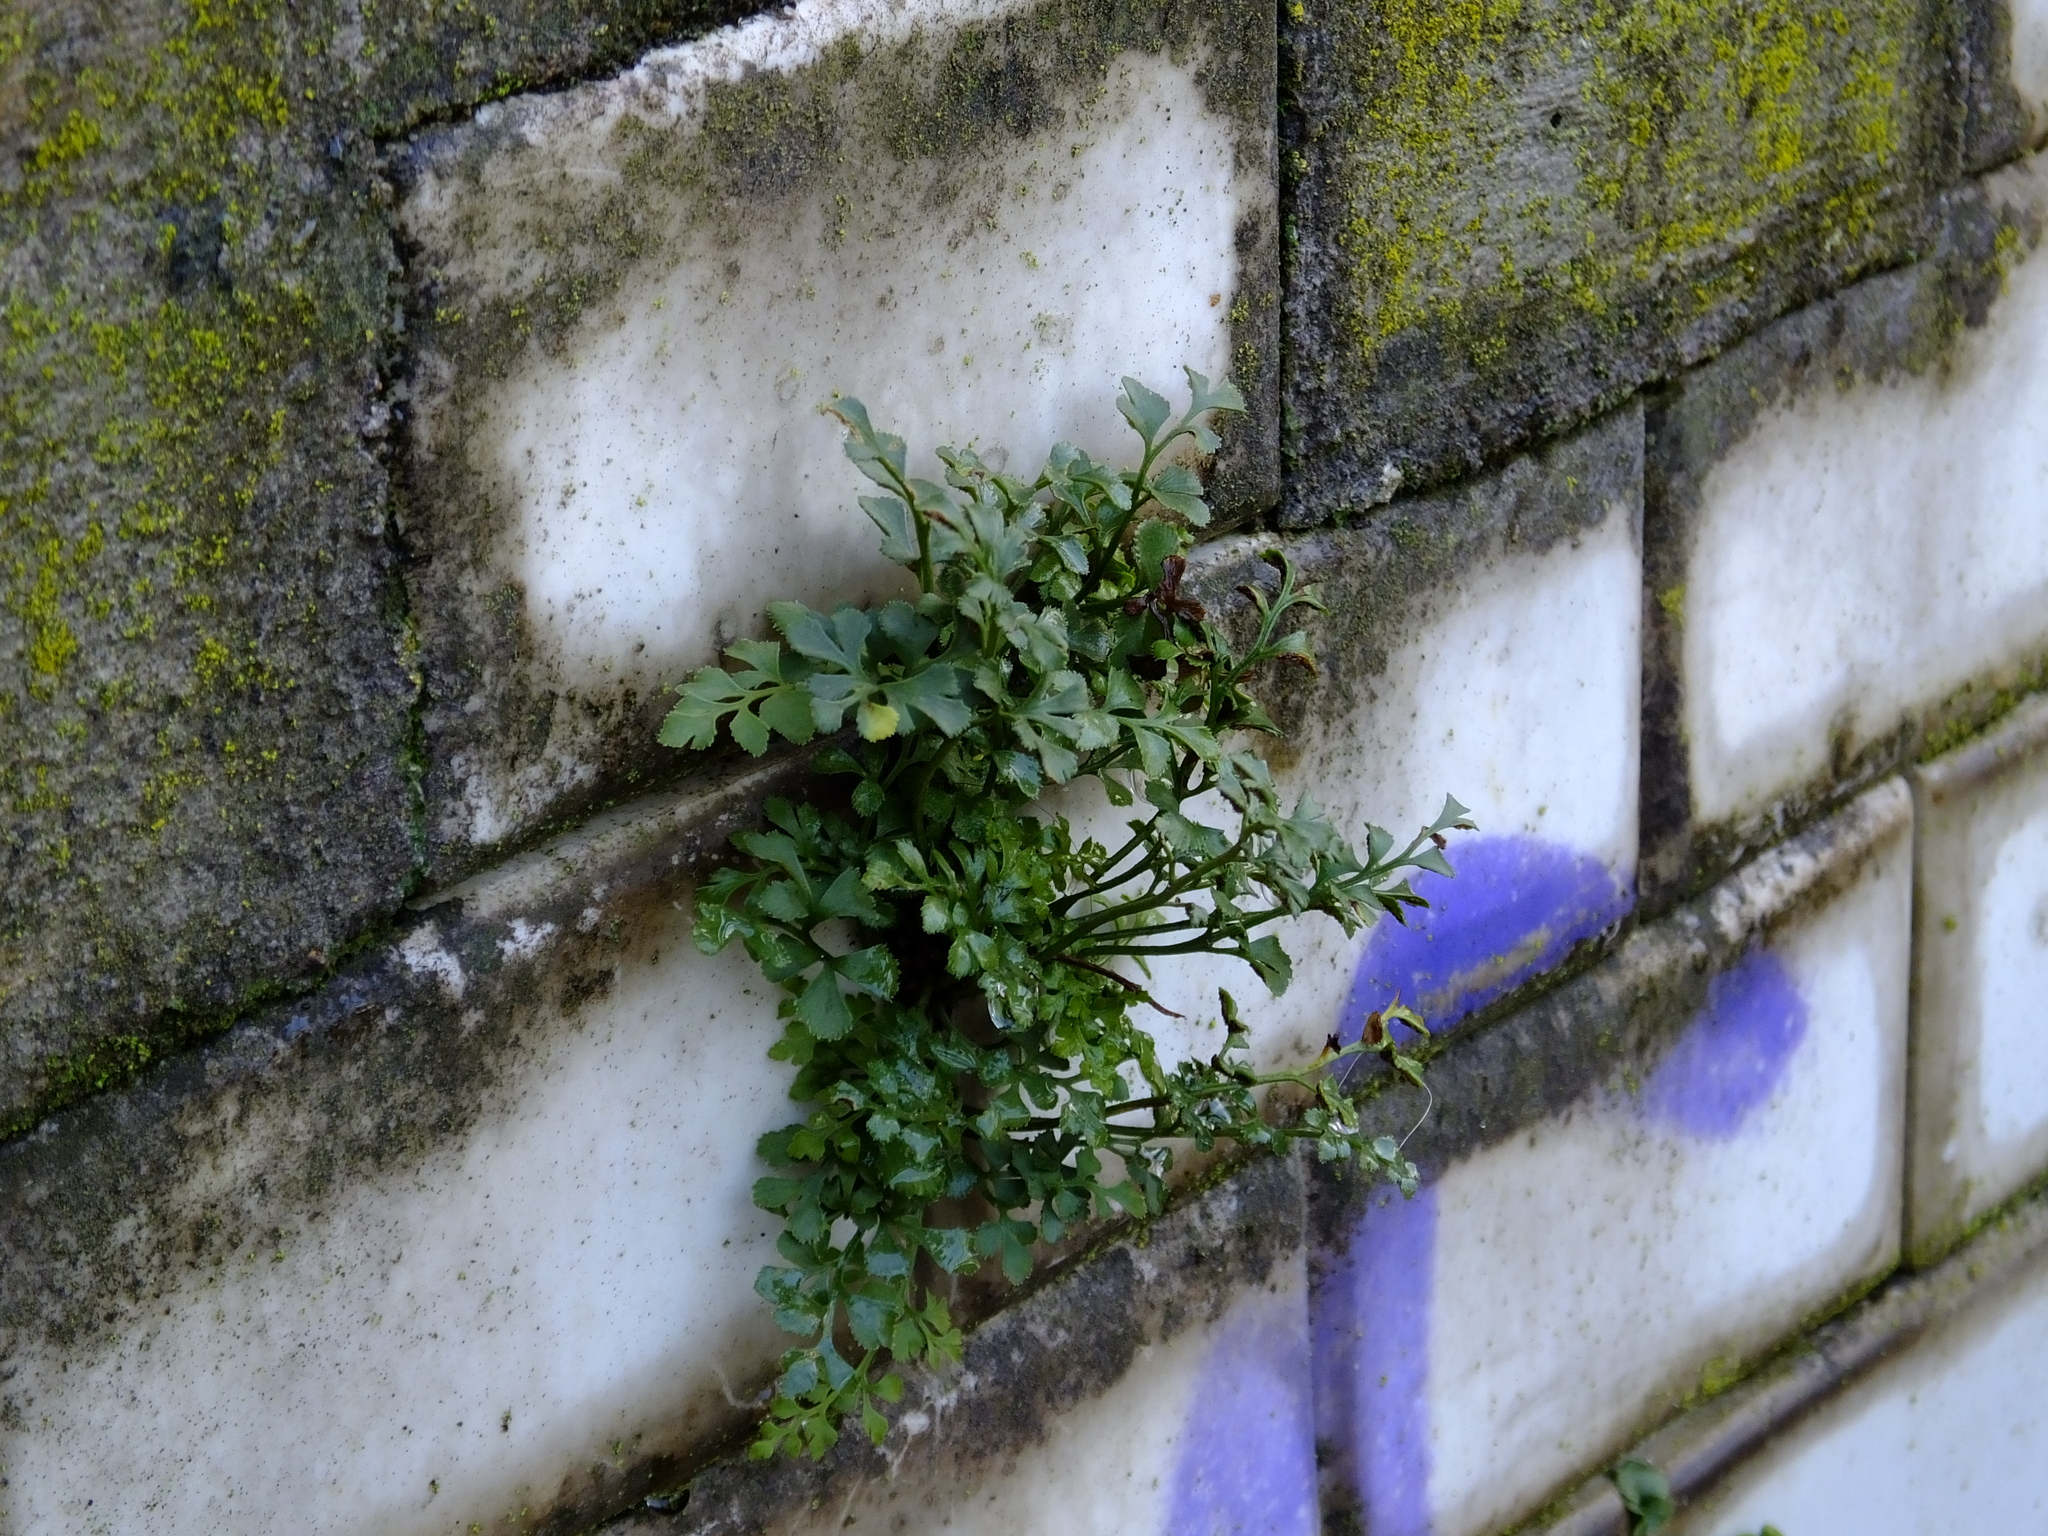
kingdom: Plantae
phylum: Tracheophyta
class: Polypodiopsida
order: Polypodiales
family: Aspleniaceae
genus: Asplenium
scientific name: Asplenium ruta-muraria
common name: Wall-rue
